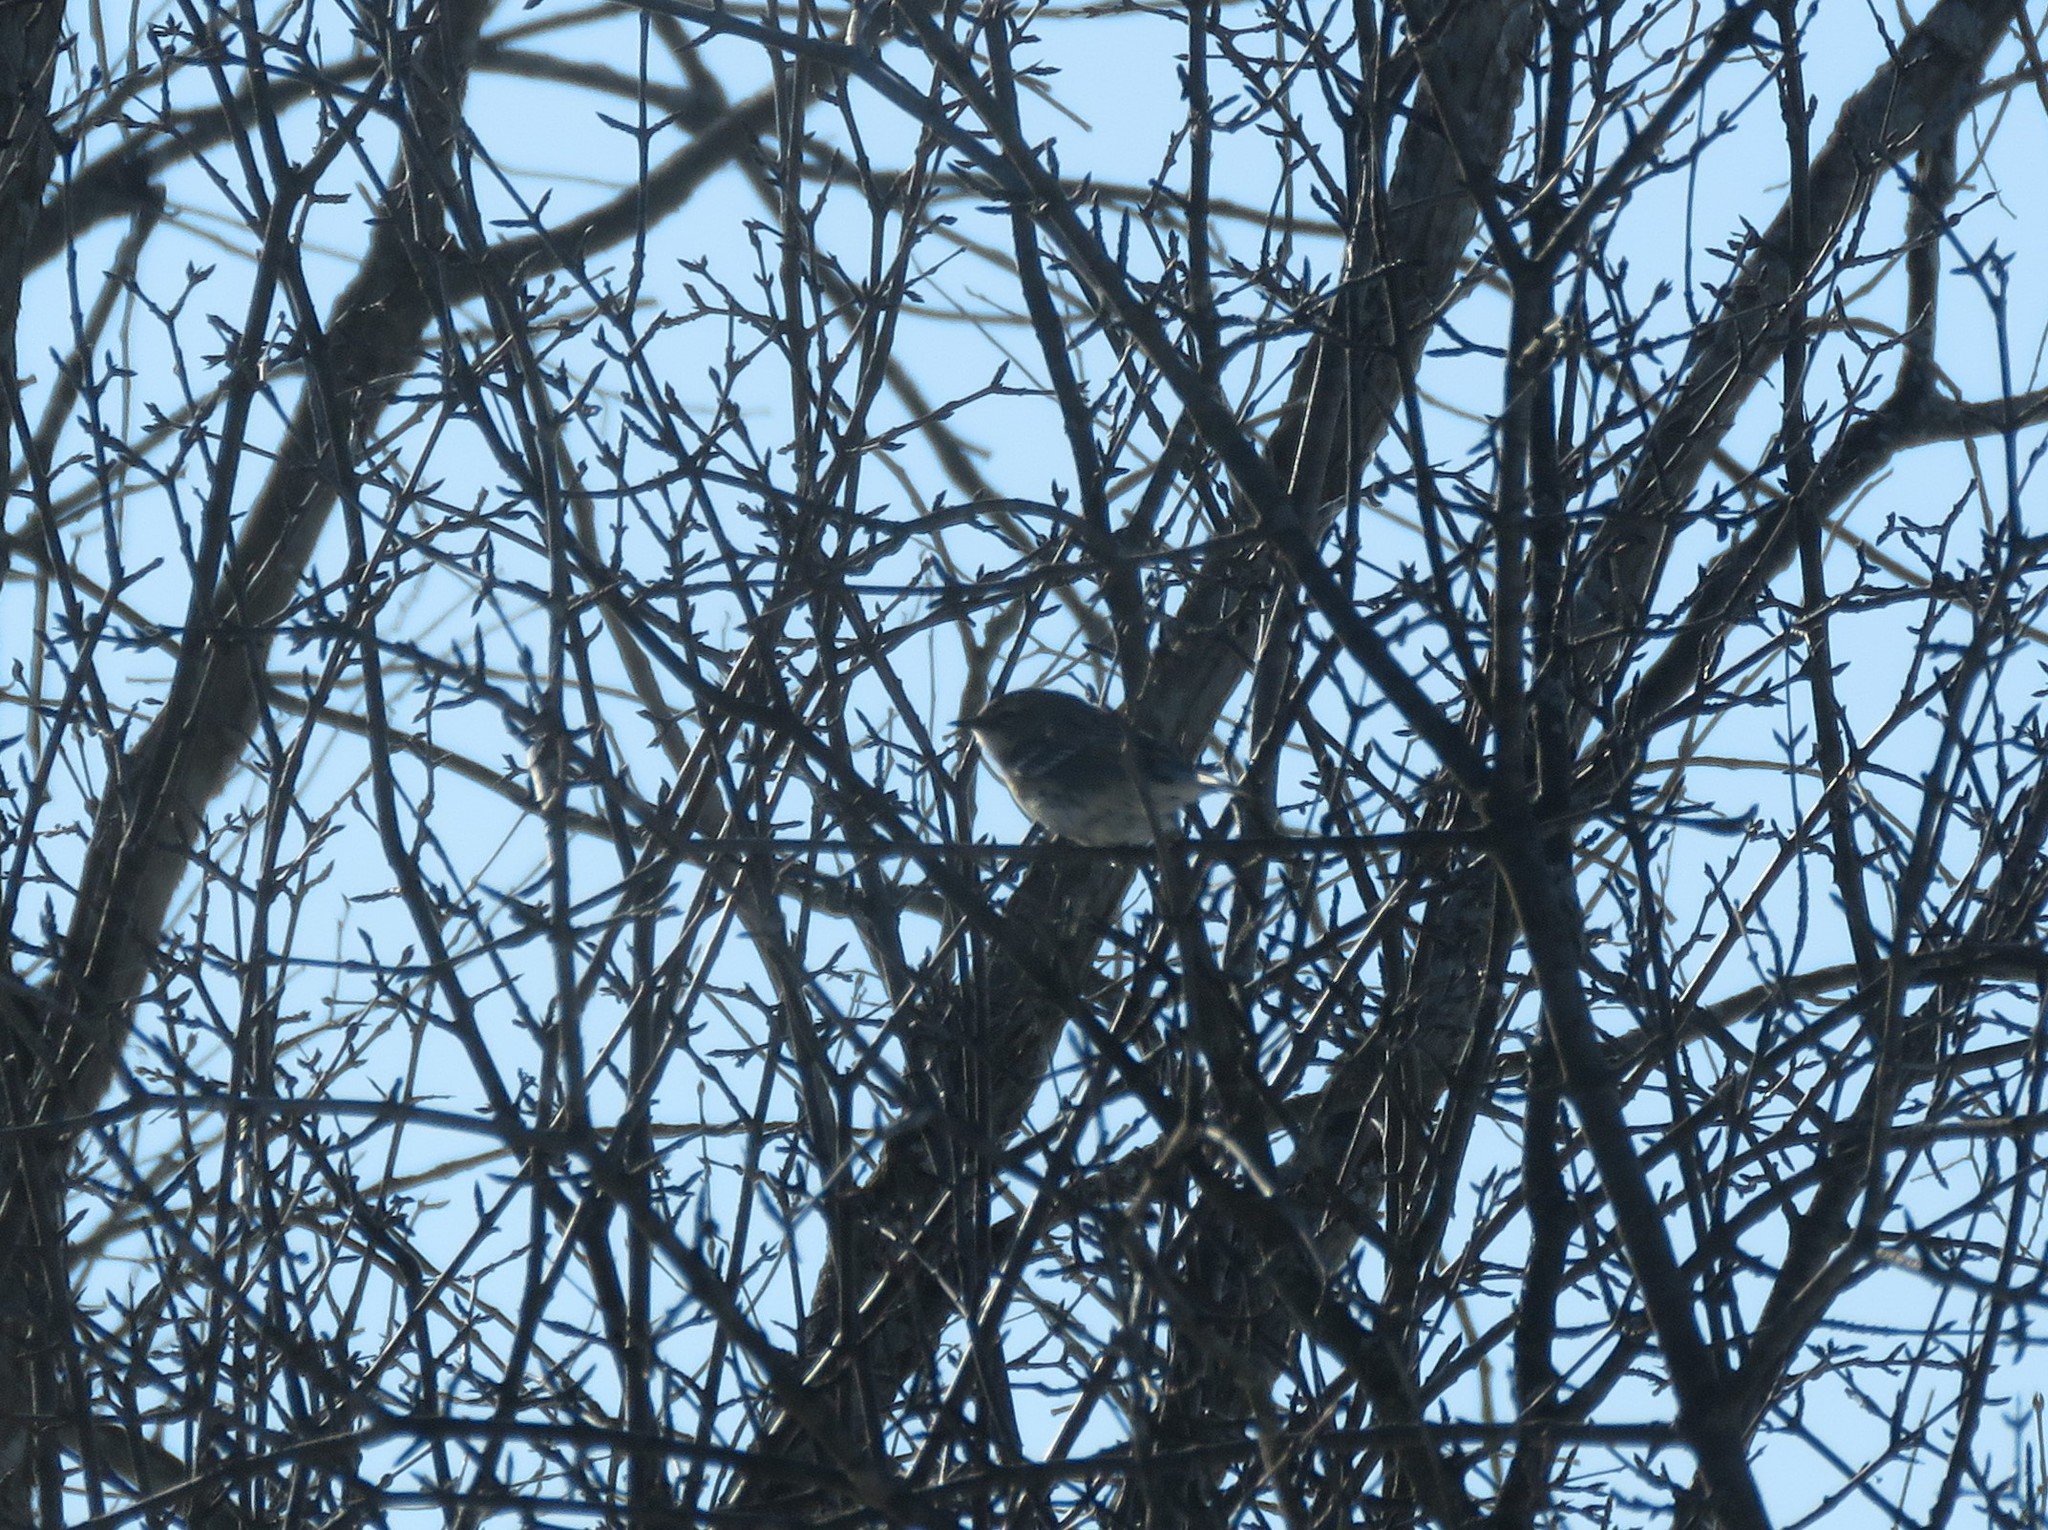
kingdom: Animalia
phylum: Chordata
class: Aves
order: Passeriformes
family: Parulidae
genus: Setophaga
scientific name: Setophaga coronata
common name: Myrtle warbler
